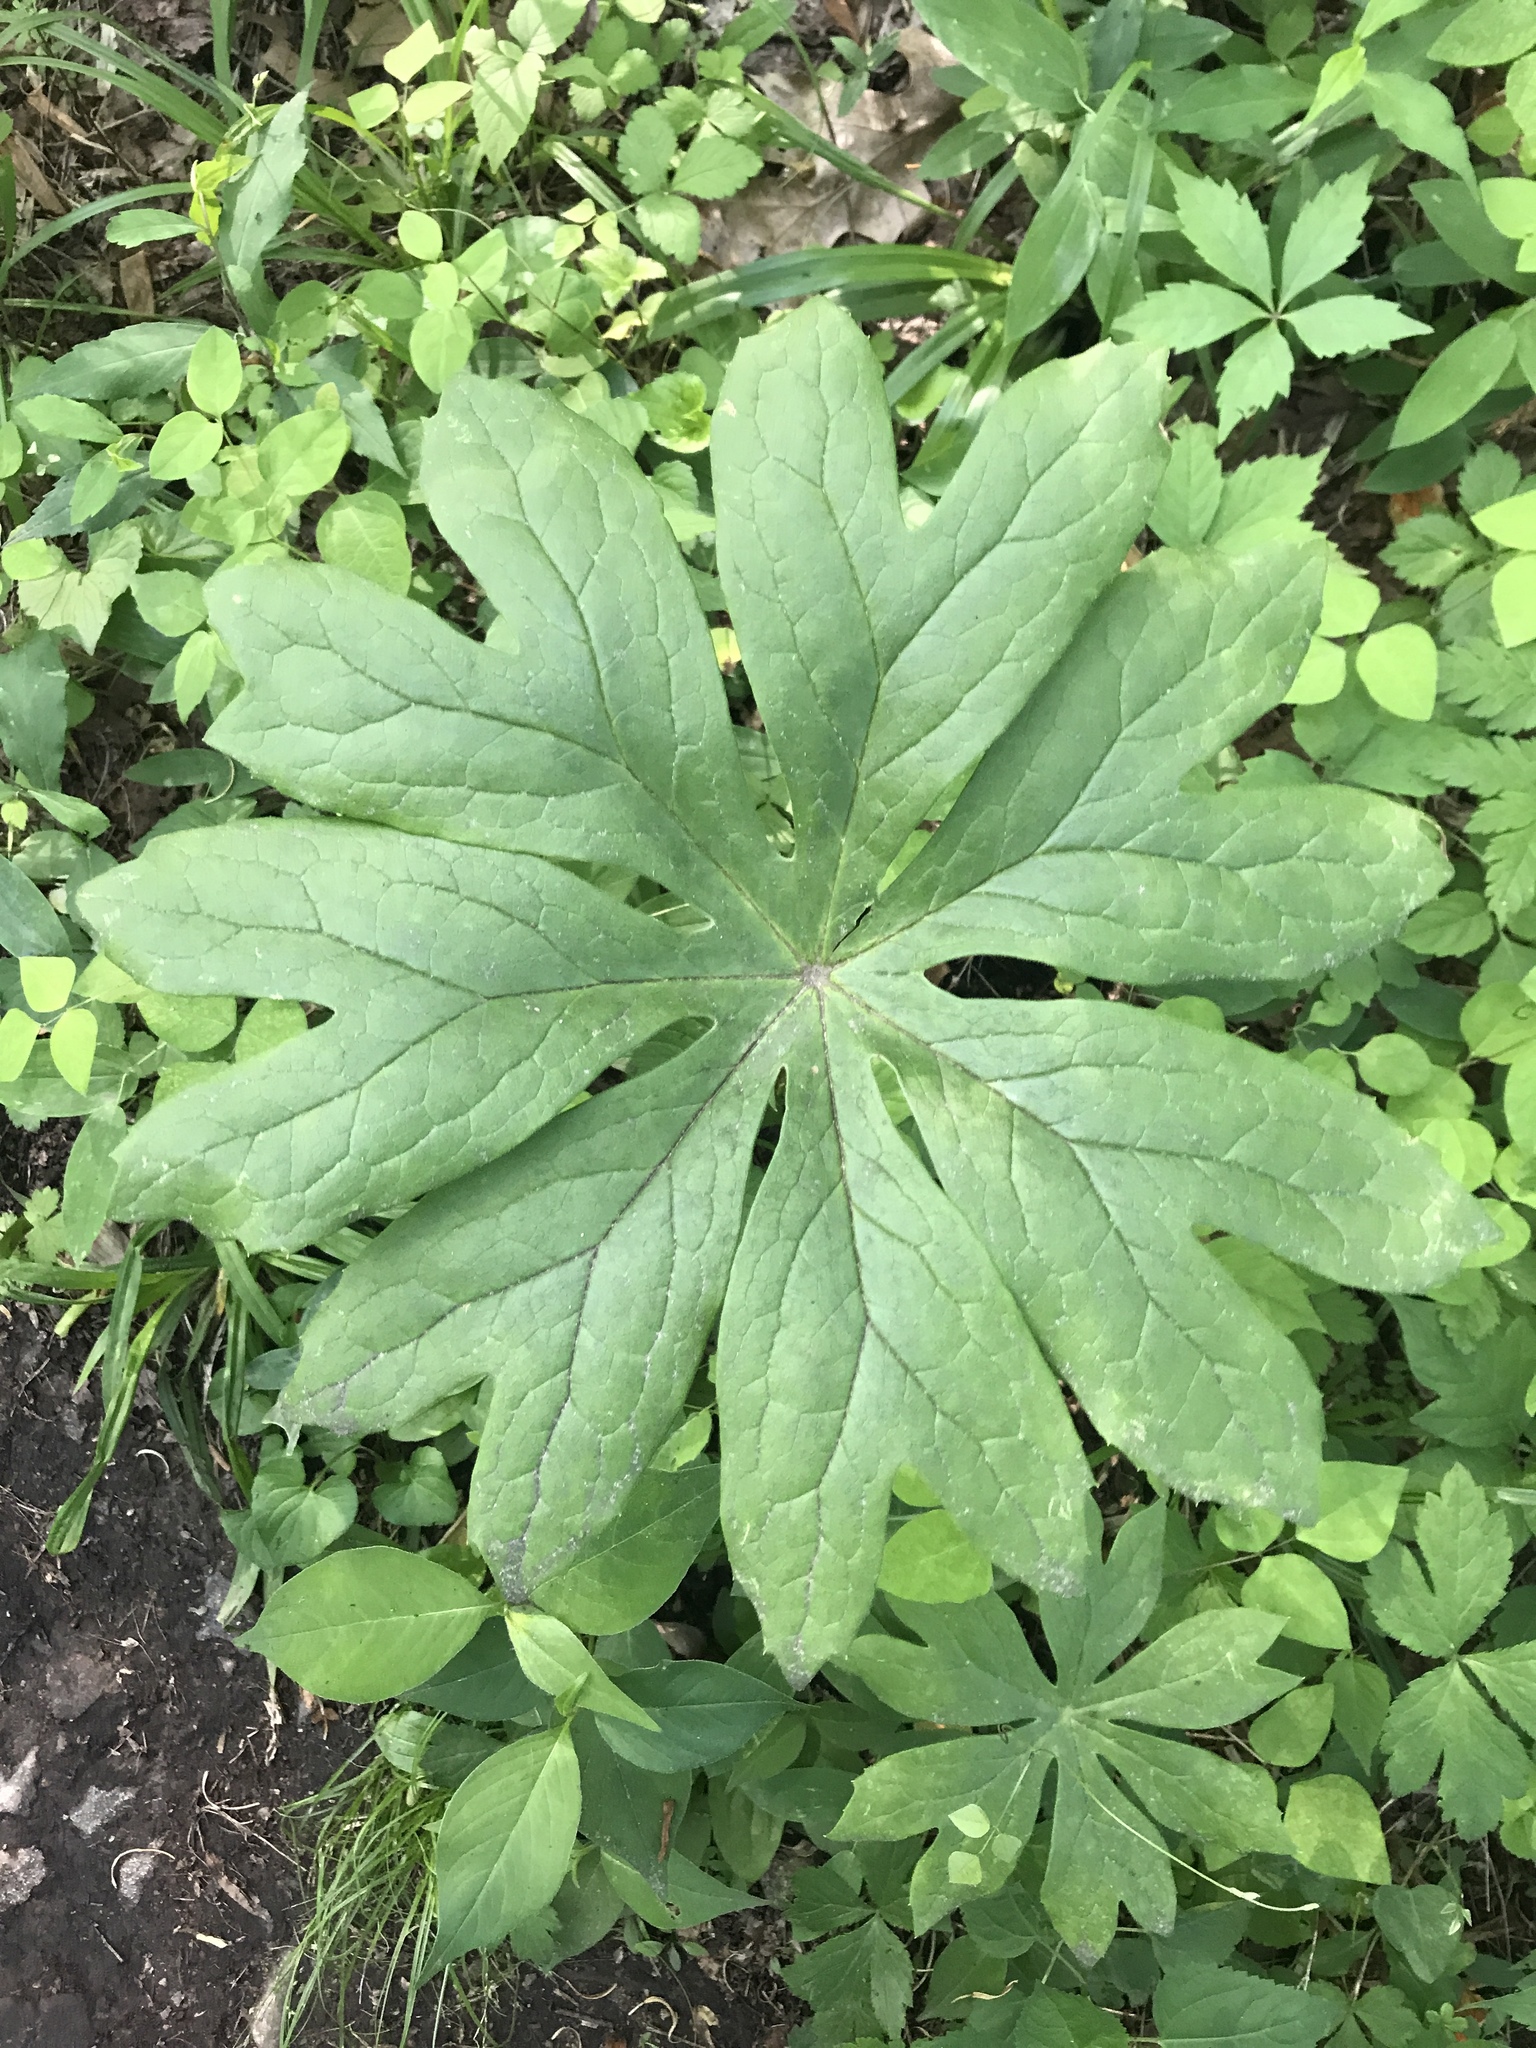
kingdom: Plantae
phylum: Tracheophyta
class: Magnoliopsida
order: Ranunculales
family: Berberidaceae
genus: Podophyllum
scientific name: Podophyllum peltatum
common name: Wild mandrake
